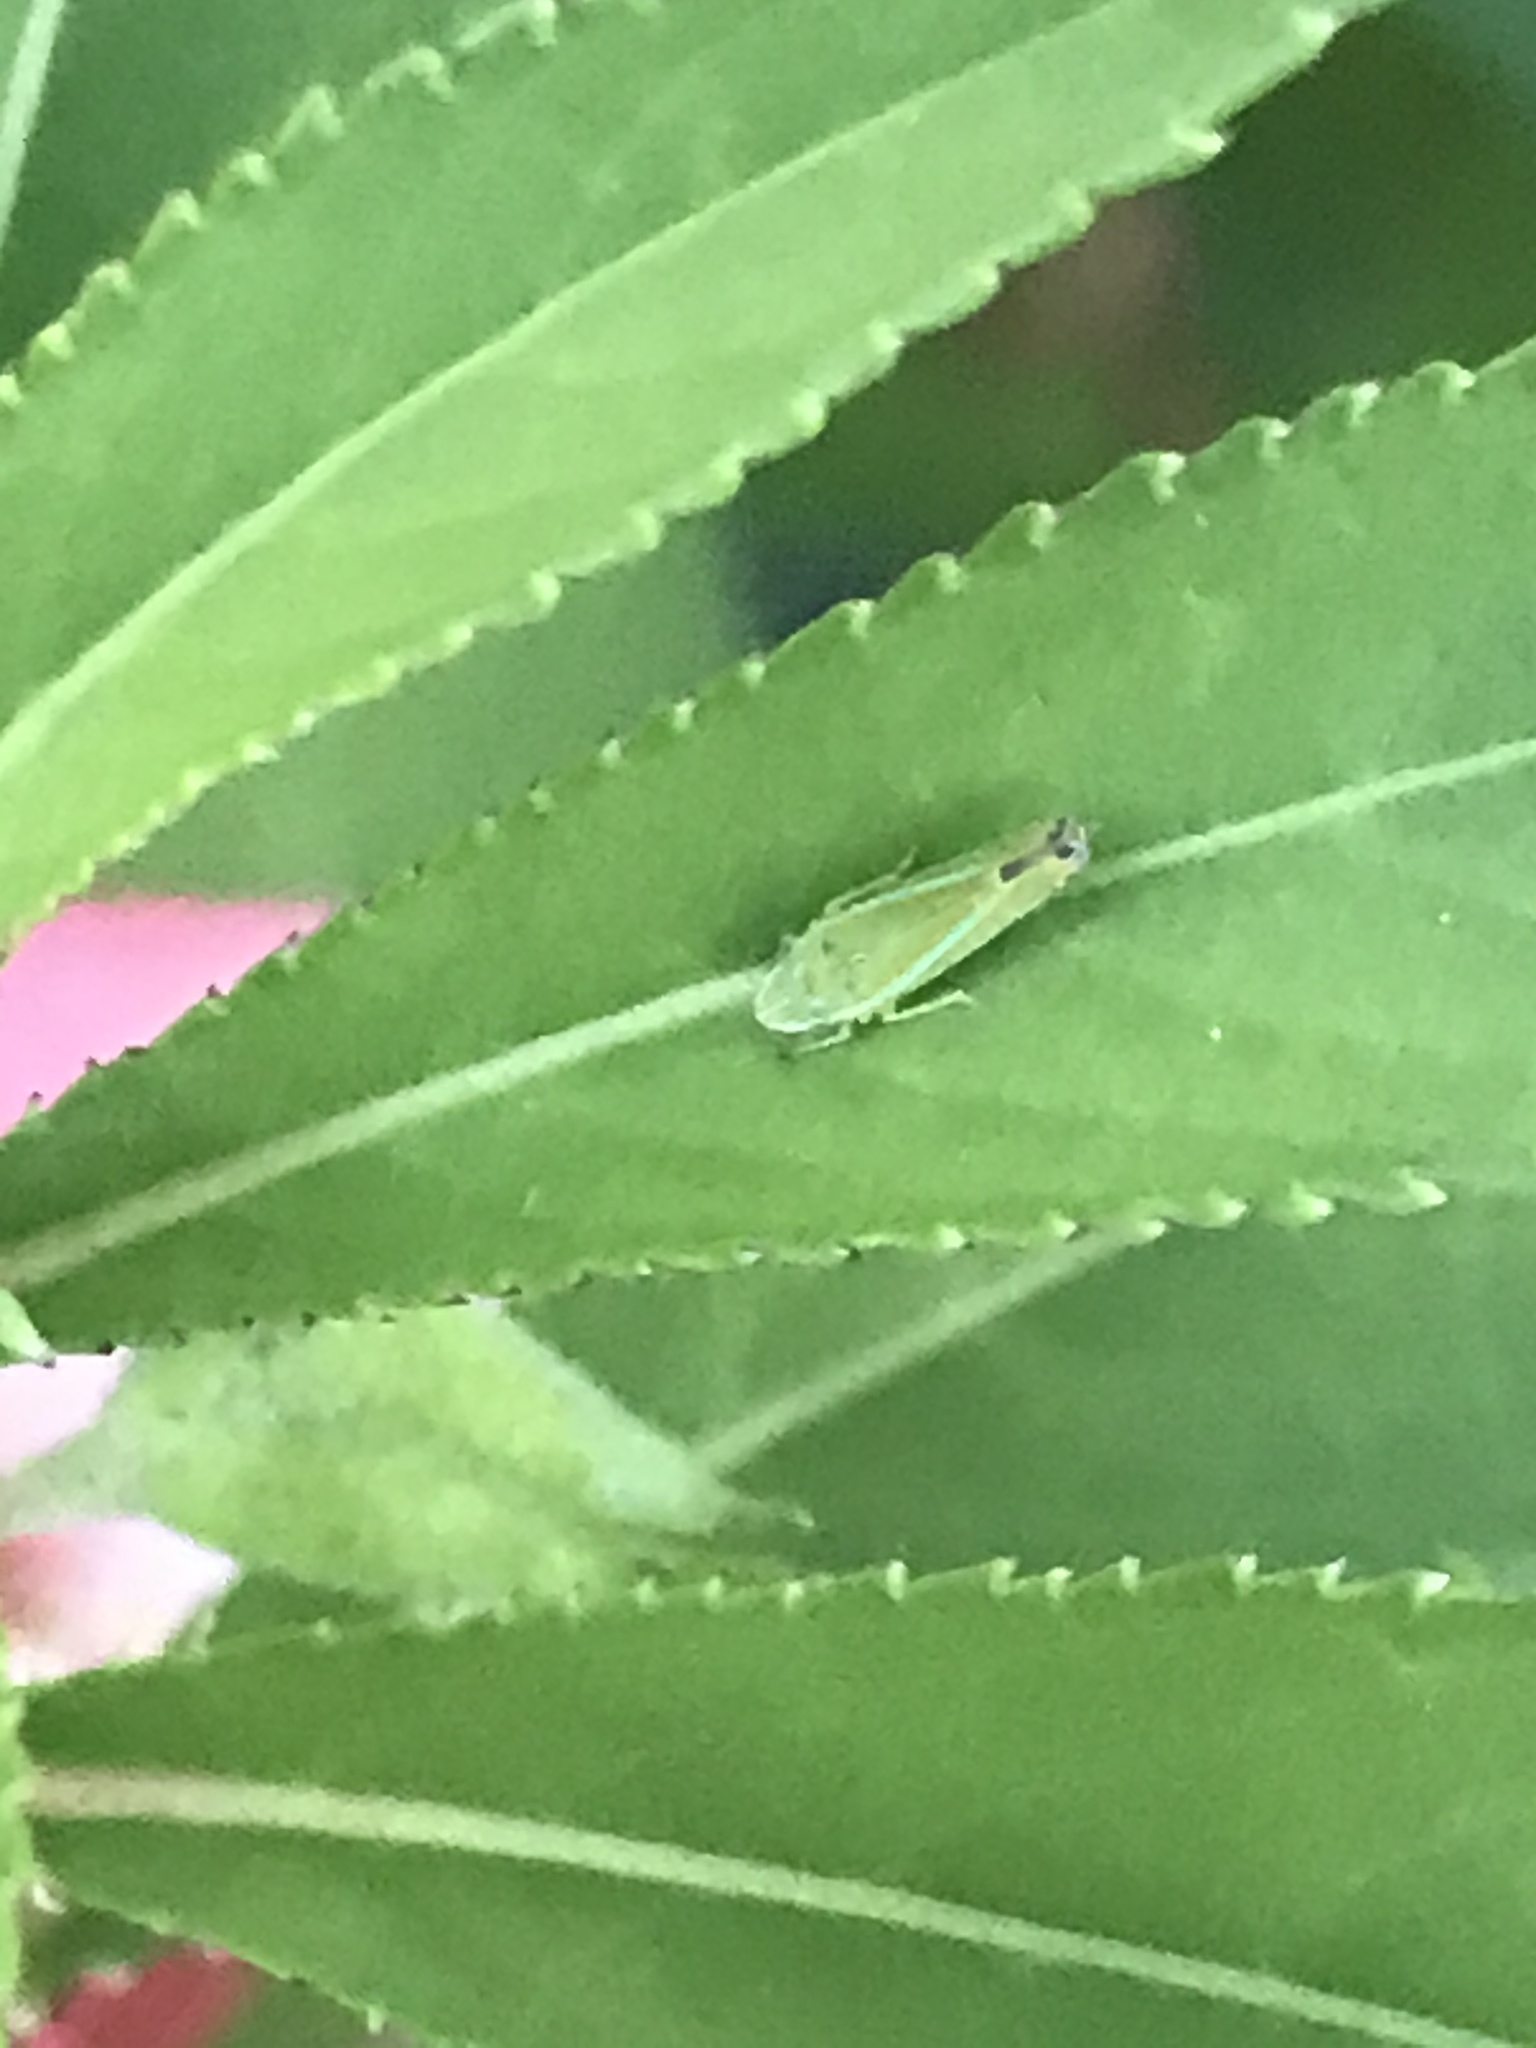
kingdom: Animalia
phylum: Arthropoda
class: Insecta
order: Hemiptera
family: Cicadellidae
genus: Graphocephala
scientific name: Graphocephala versuta
